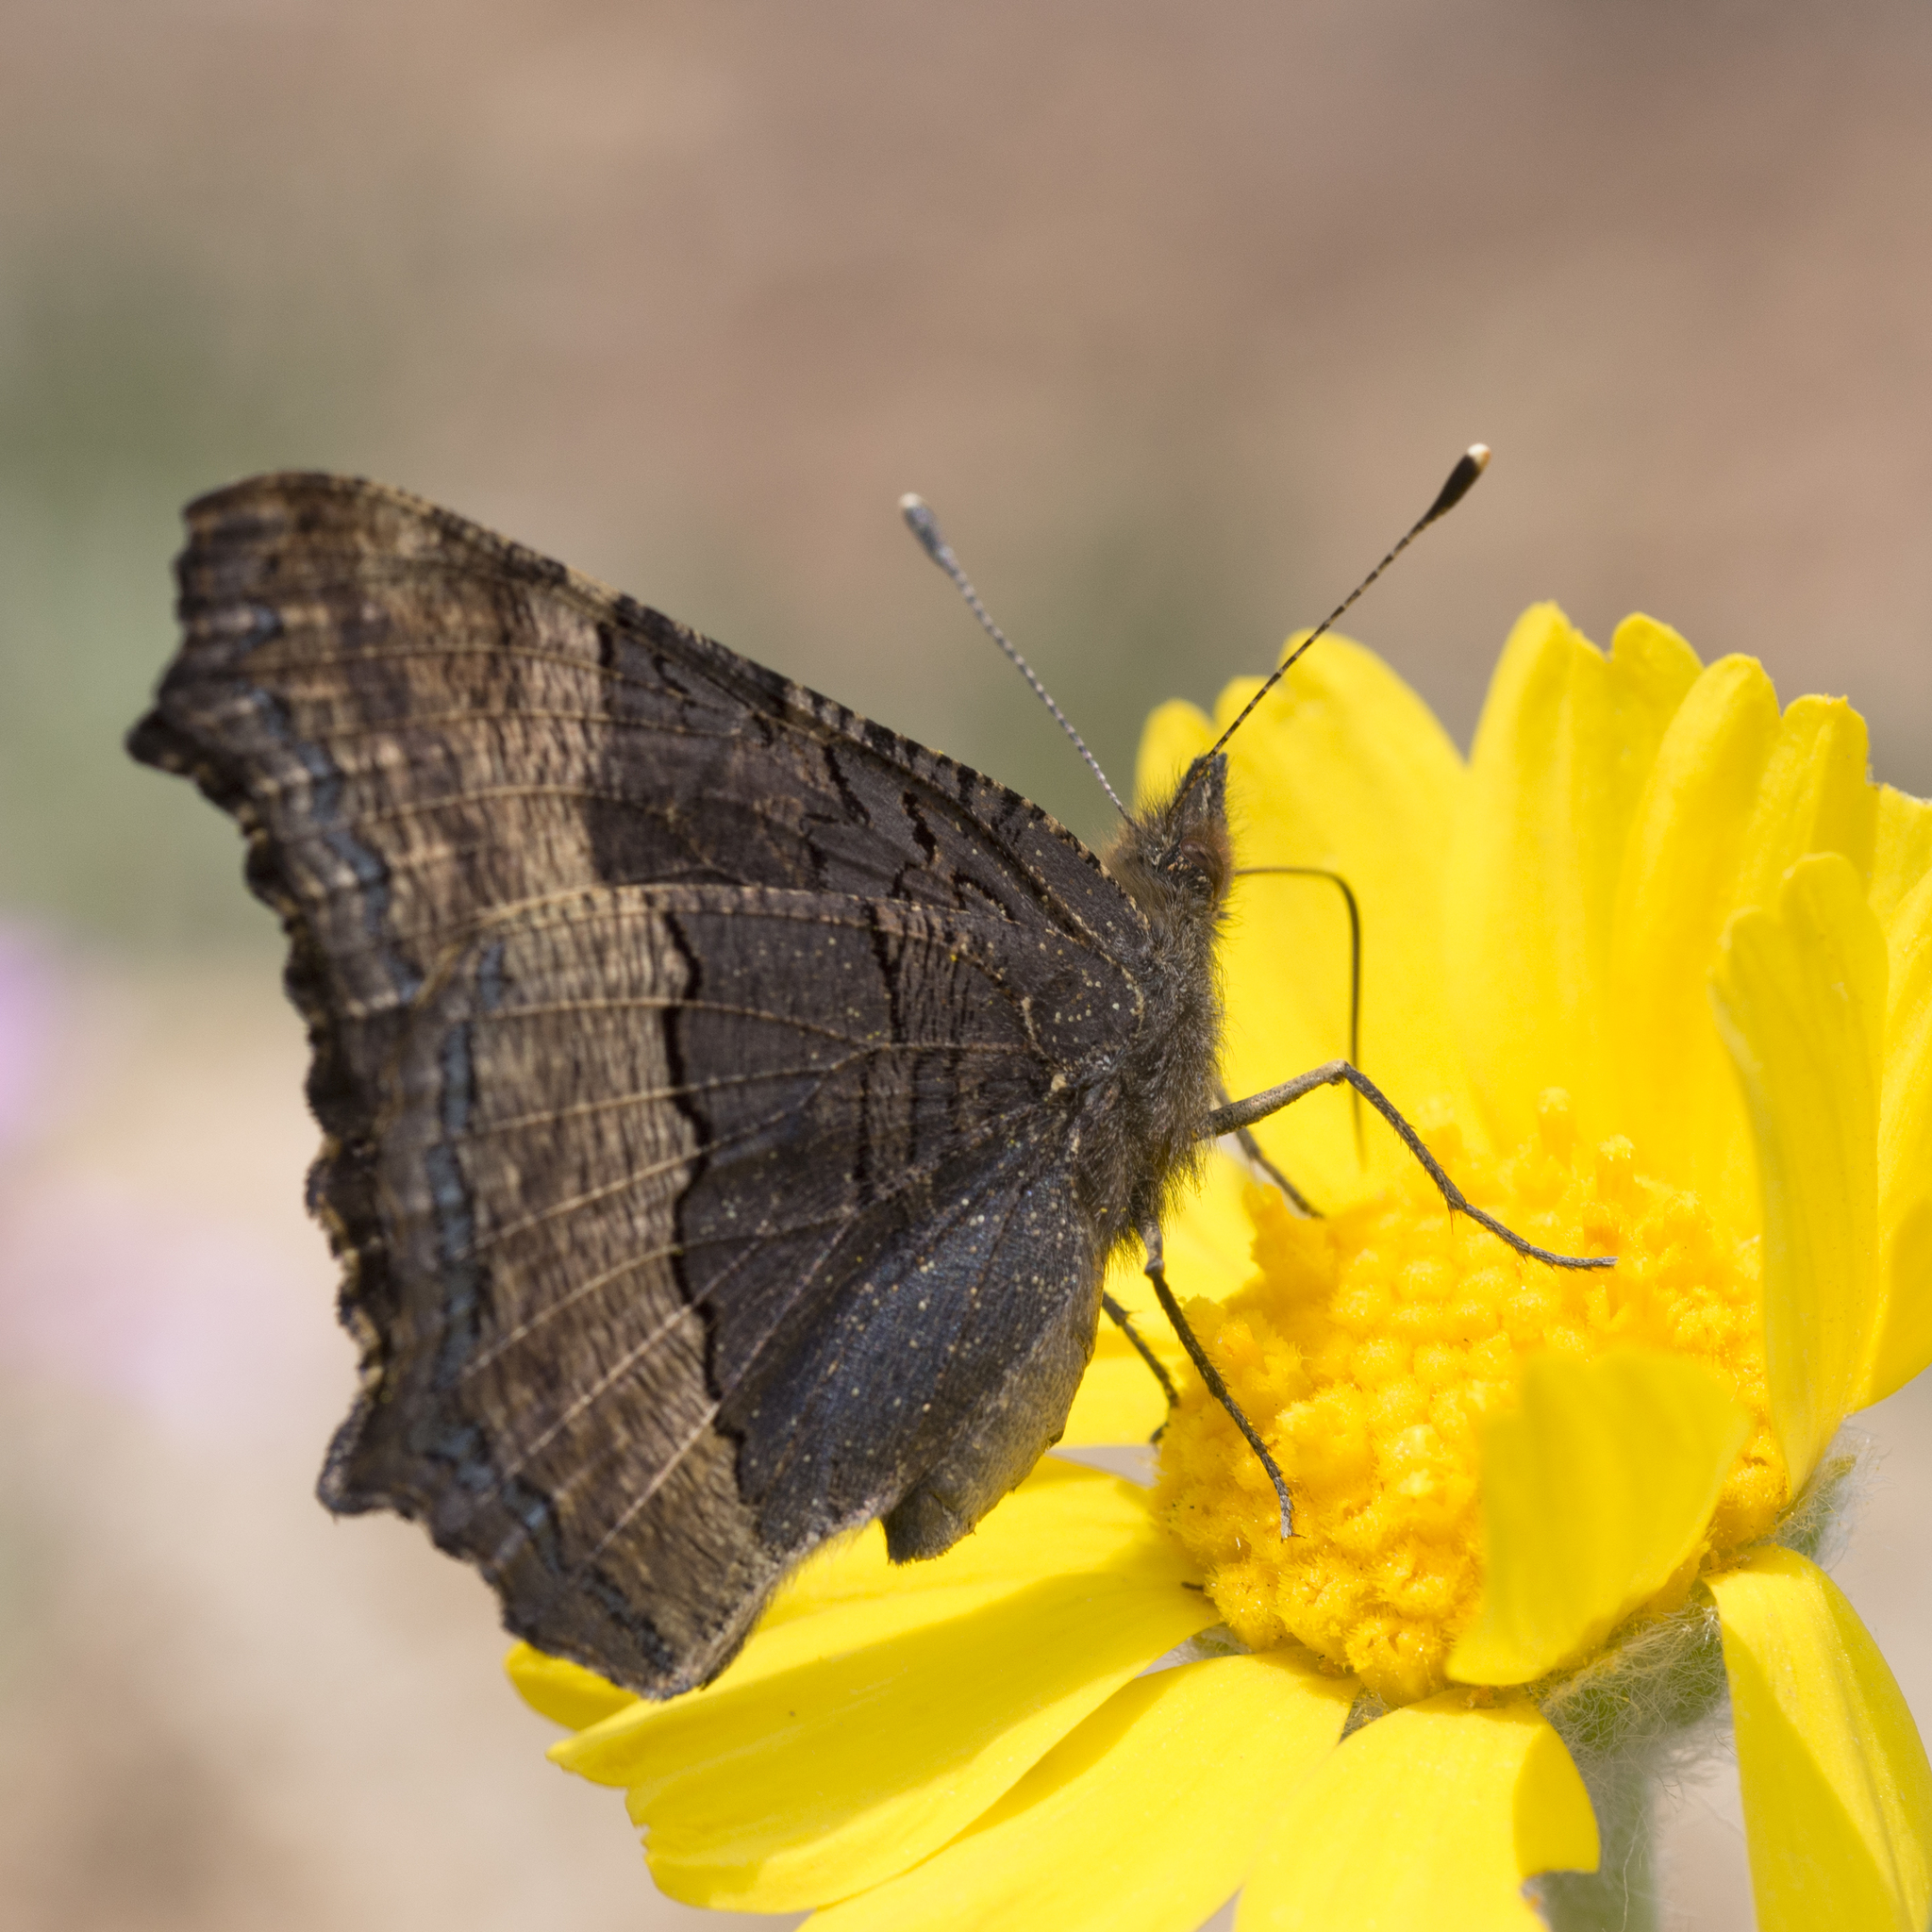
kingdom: Animalia
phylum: Arthropoda
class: Insecta
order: Lepidoptera
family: Nymphalidae
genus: Aglais
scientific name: Aglais milberti
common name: Milbert's tortoiseshell
